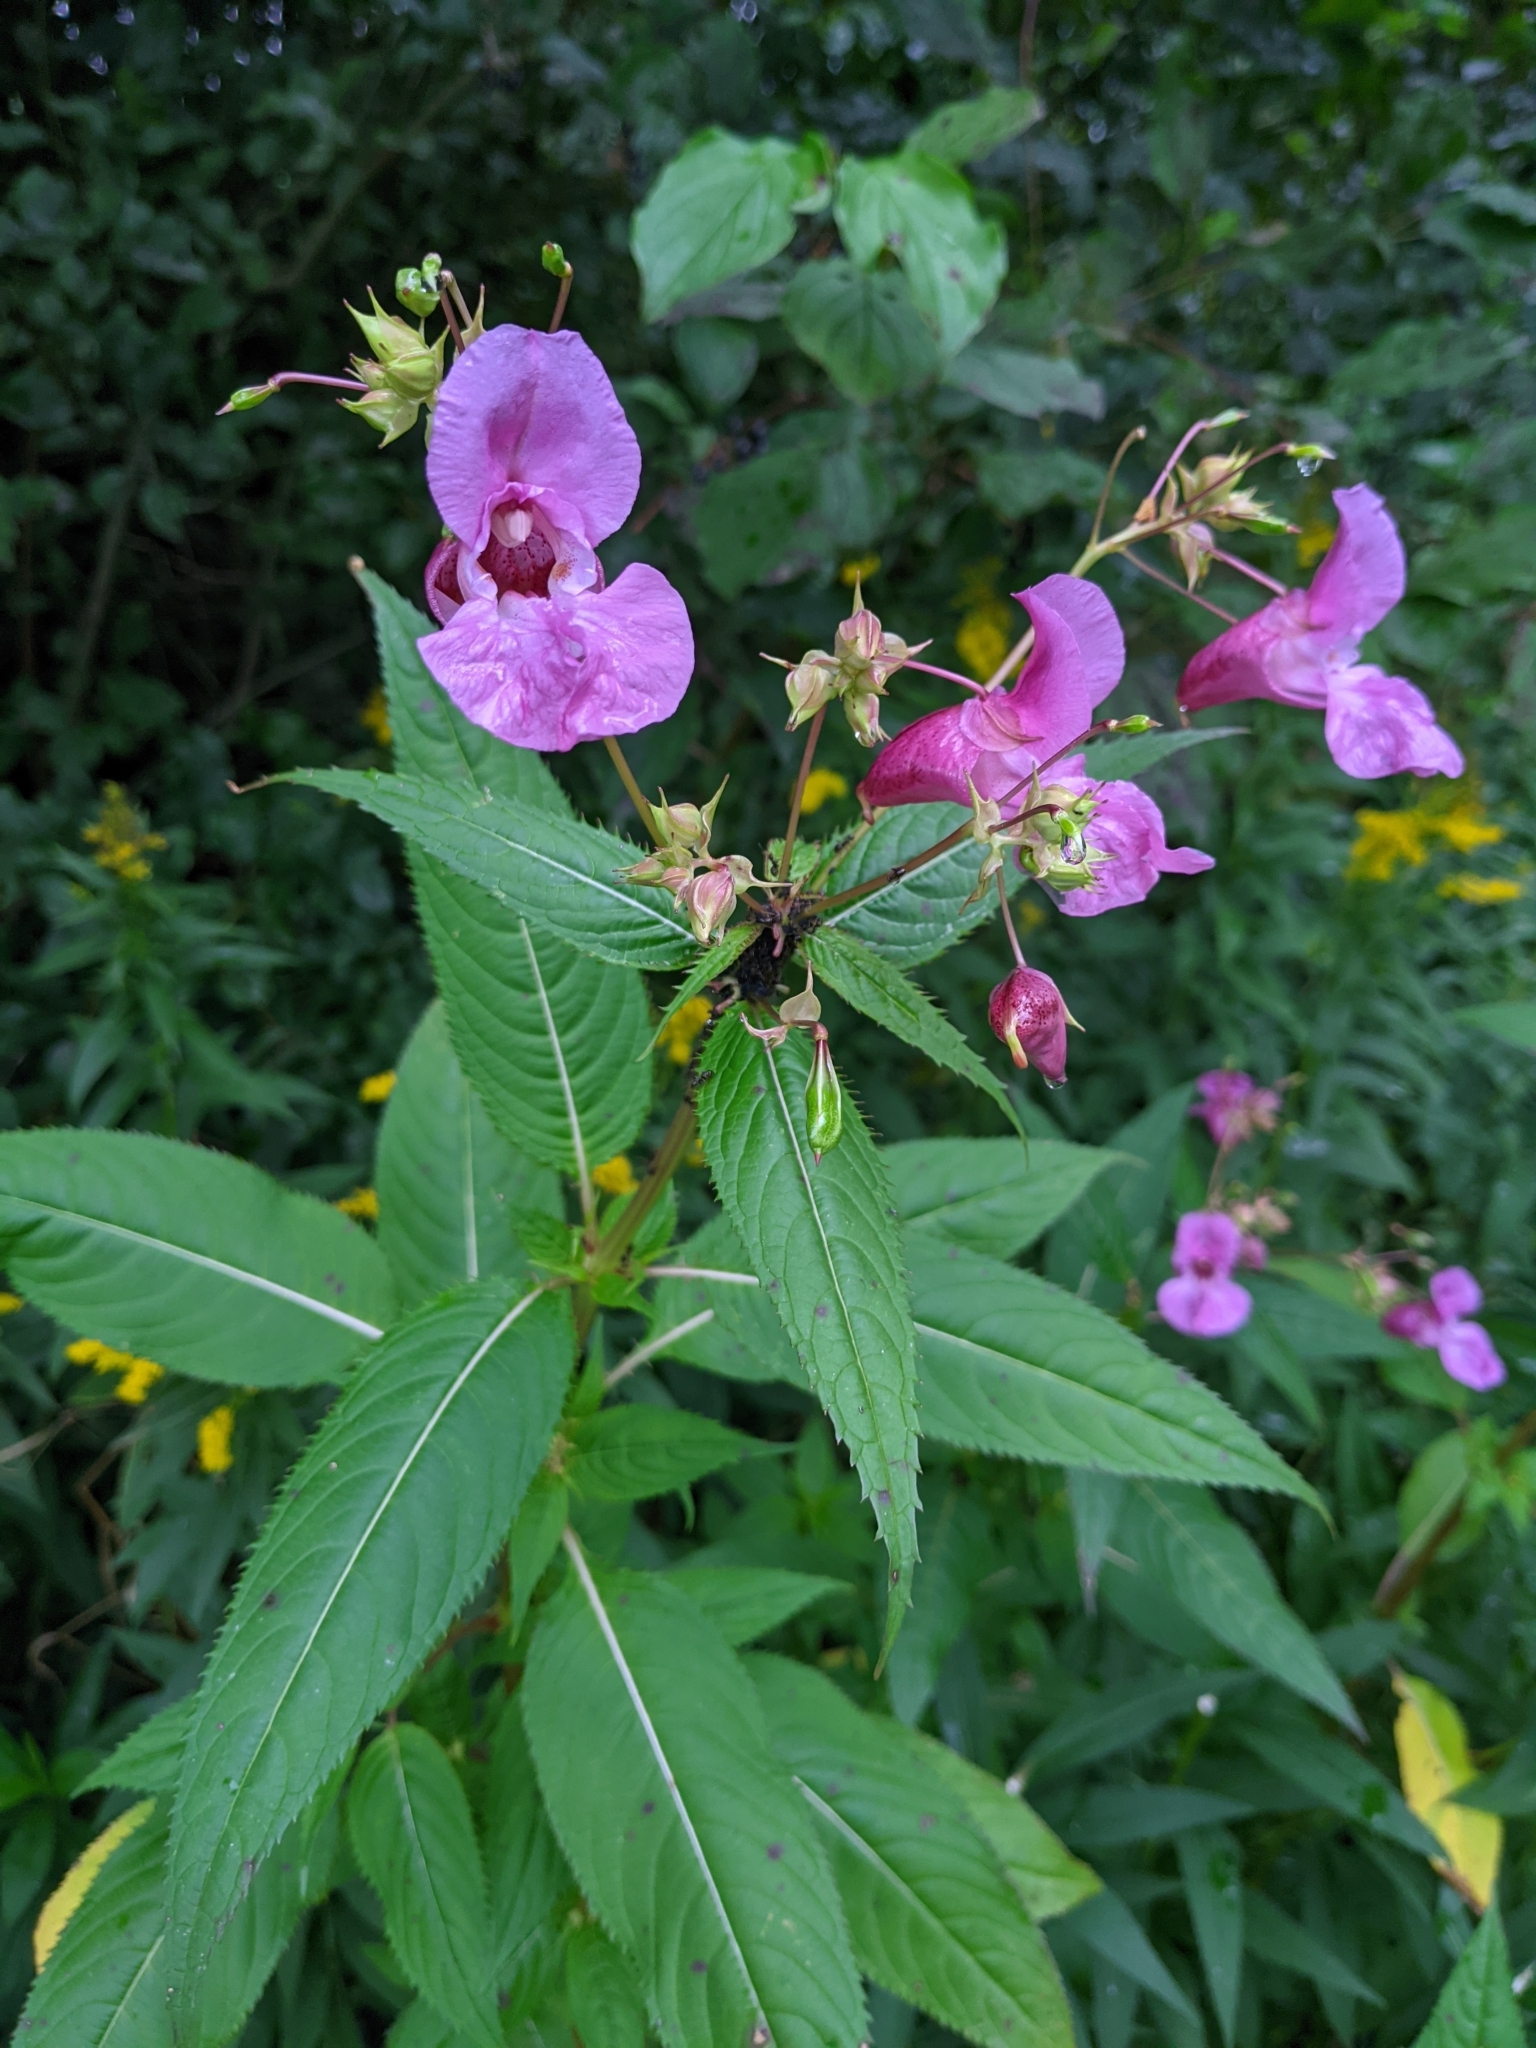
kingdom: Plantae
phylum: Tracheophyta
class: Magnoliopsida
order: Ericales
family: Balsaminaceae
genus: Impatiens
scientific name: Impatiens glandulifera
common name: Himalayan balsam
